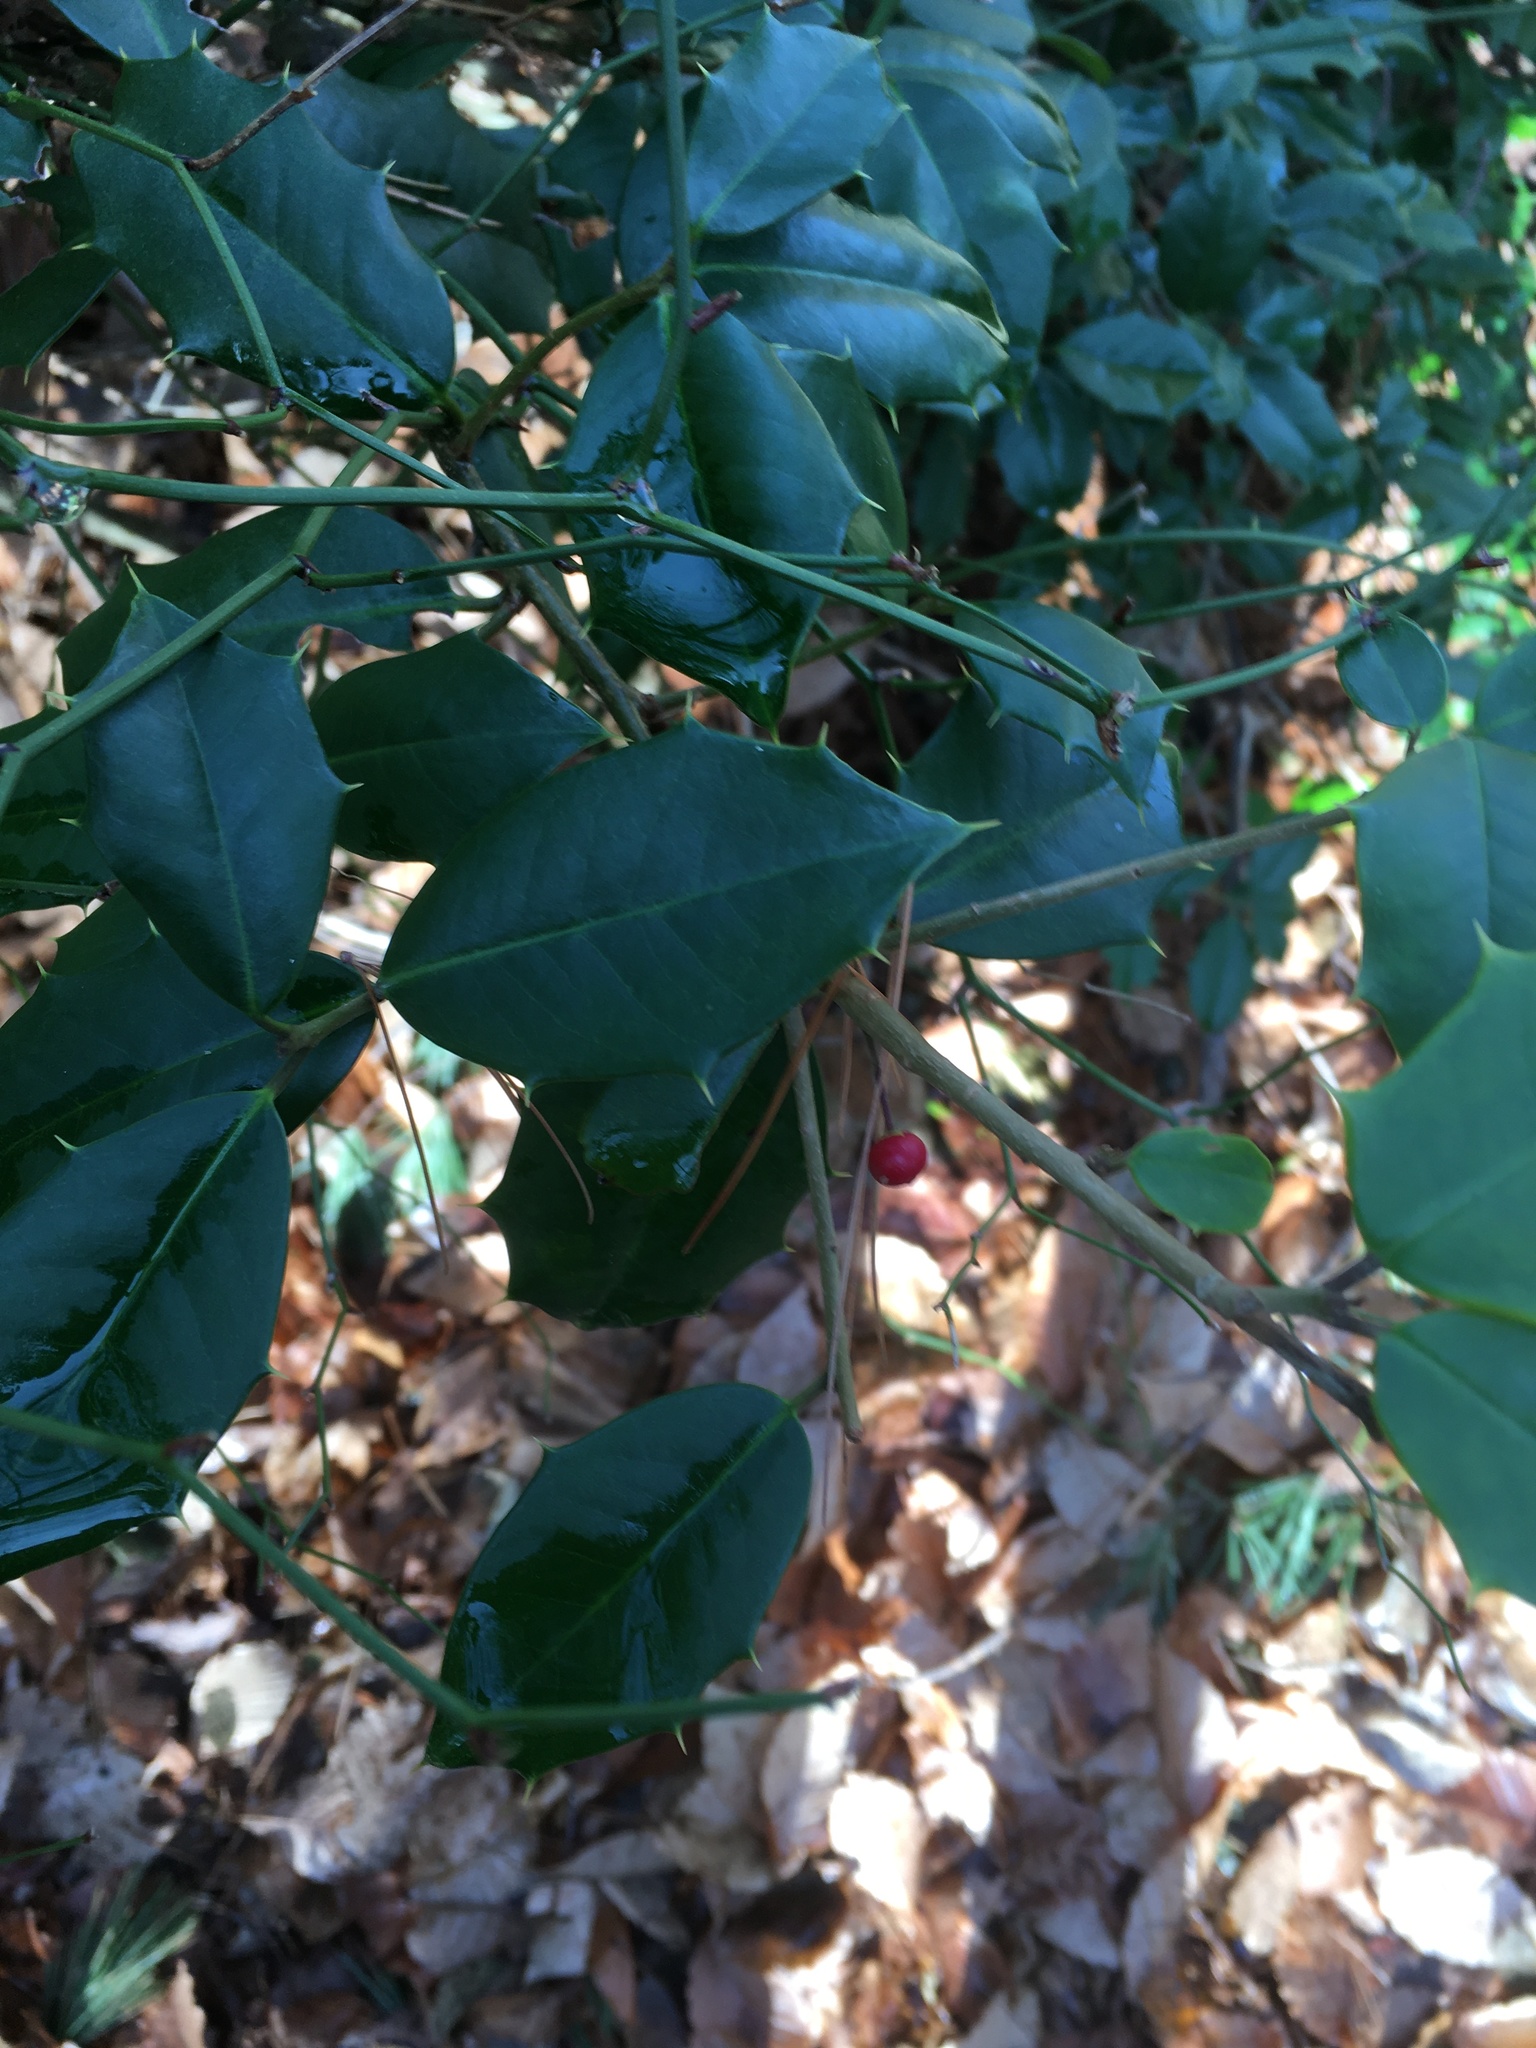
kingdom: Plantae
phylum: Tracheophyta
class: Magnoliopsida
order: Aquifoliales
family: Aquifoliaceae
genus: Ilex
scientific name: Ilex opaca
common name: American holly
